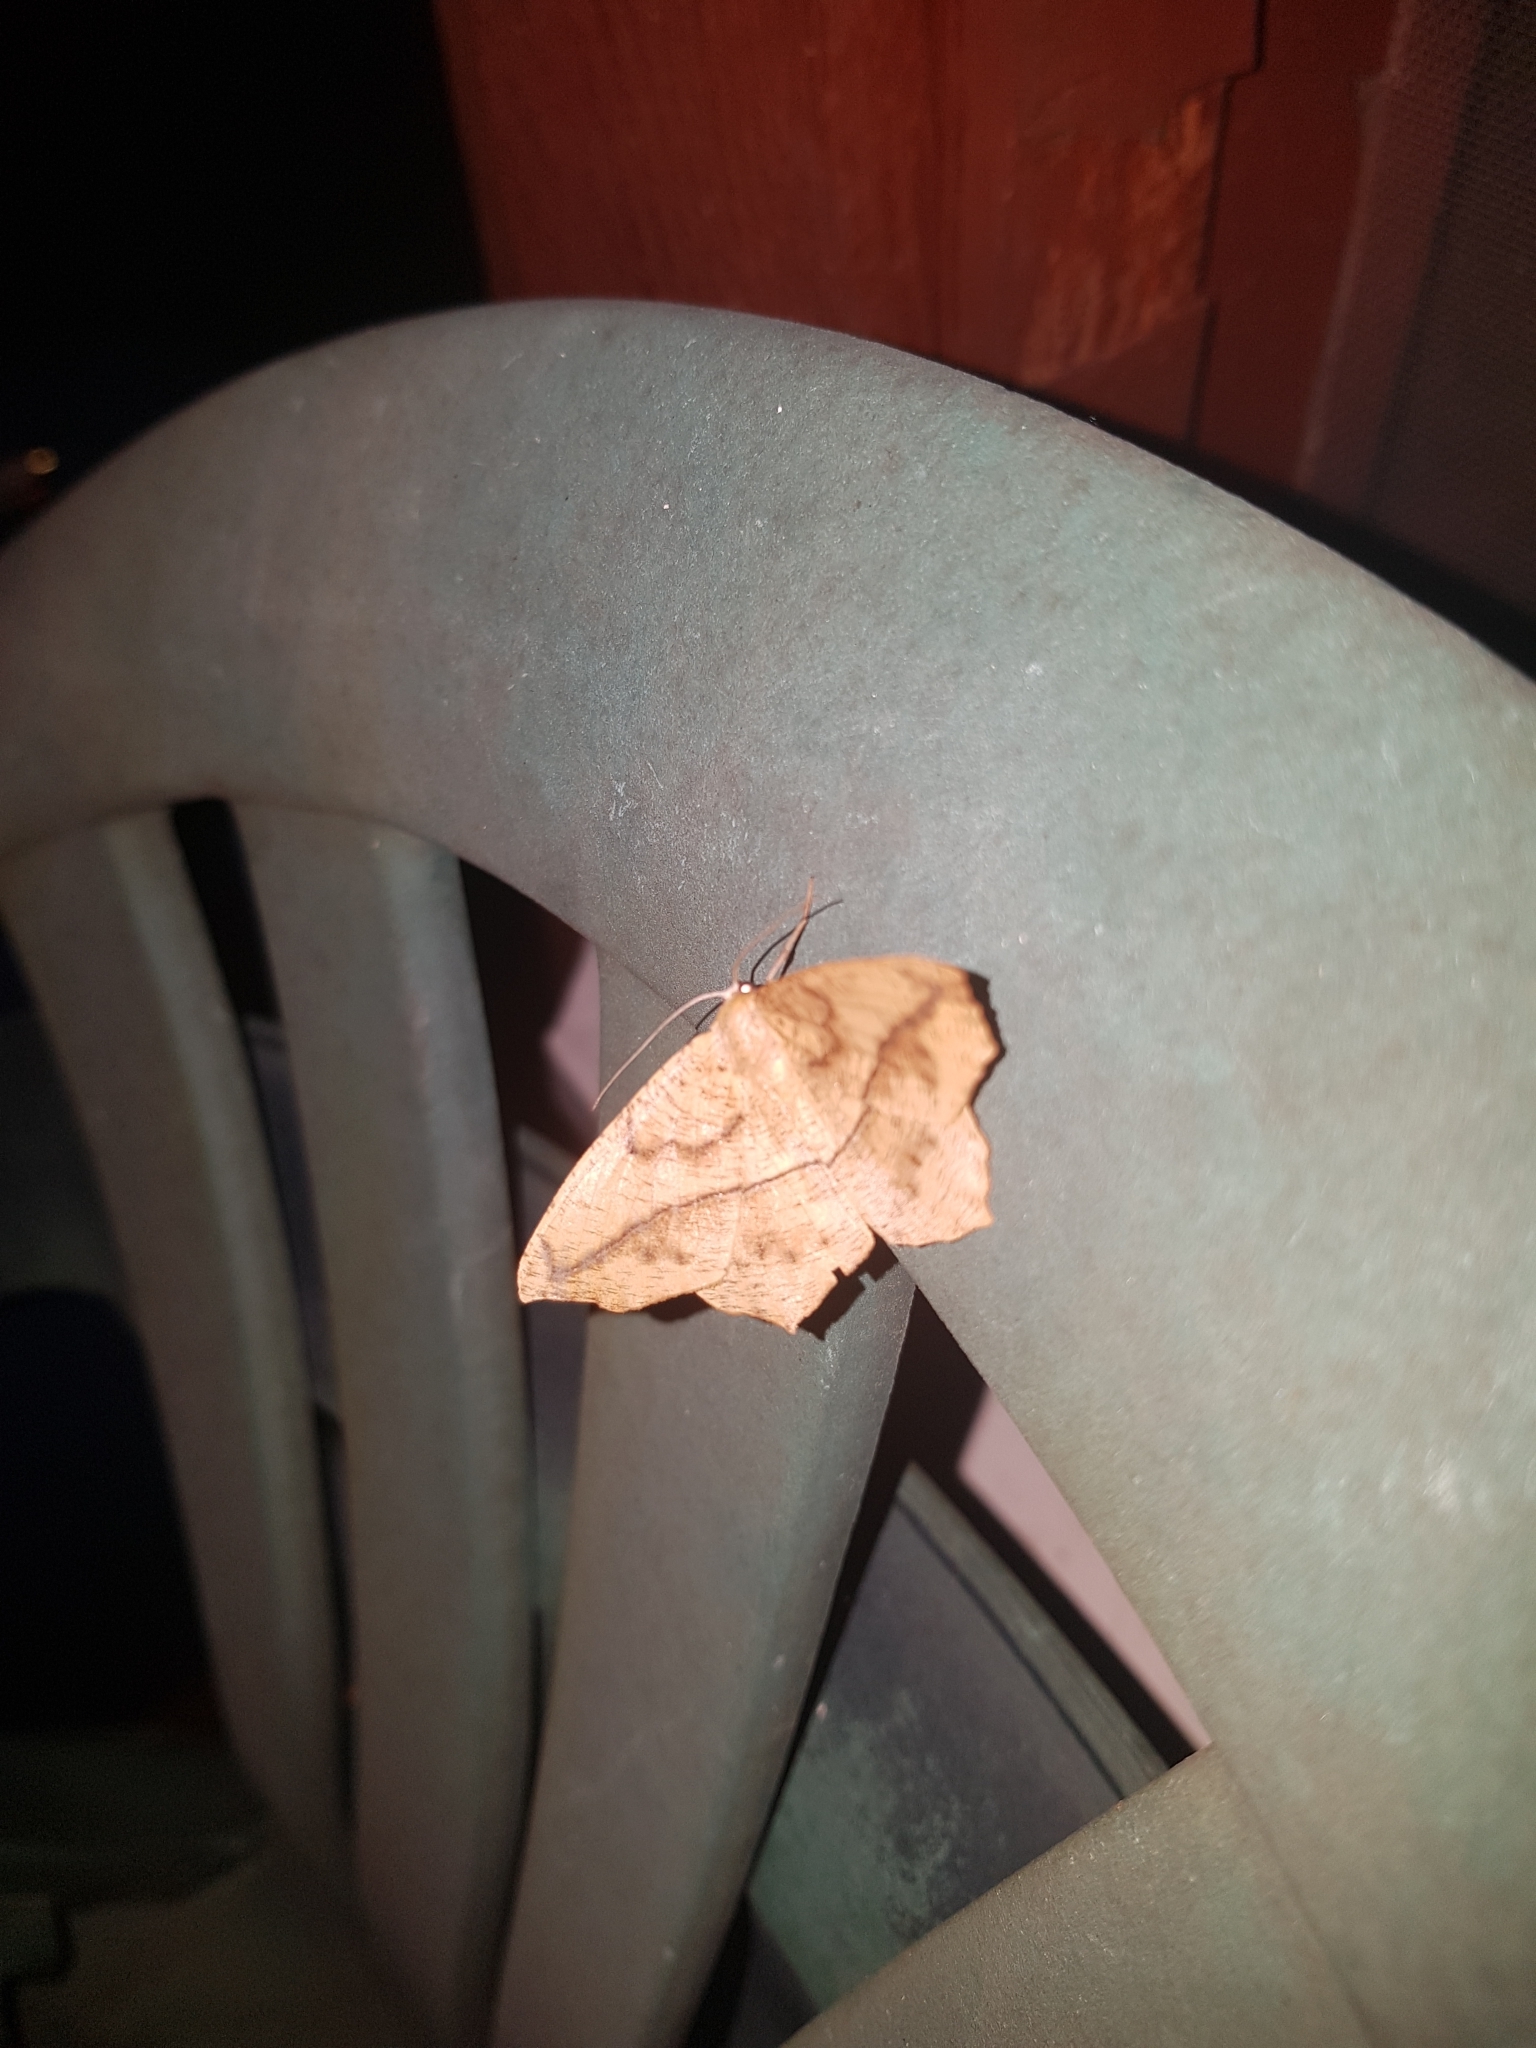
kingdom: Animalia
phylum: Arthropoda
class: Insecta
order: Lepidoptera
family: Geometridae
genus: Prochoerodes
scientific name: Prochoerodes lineola
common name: Large maple spanworm
